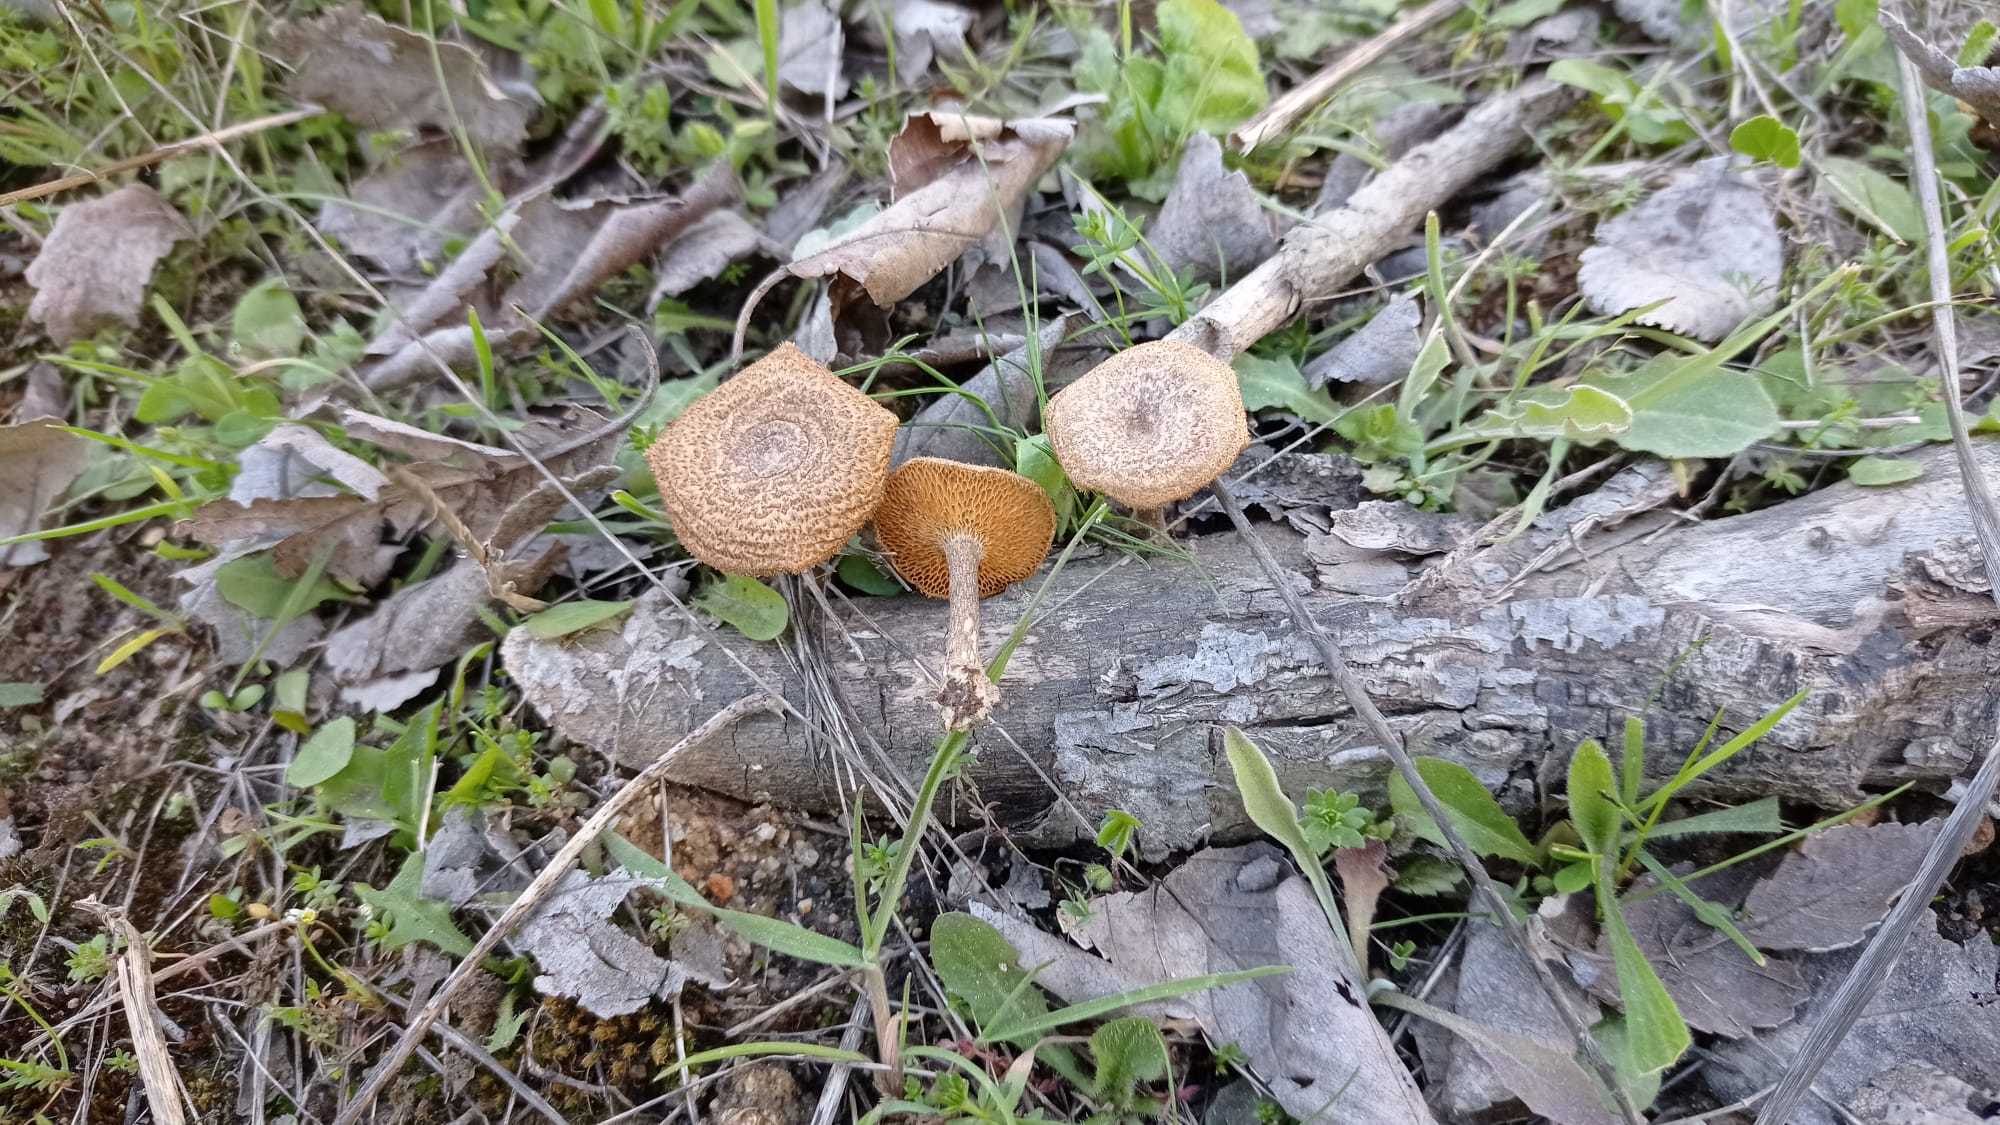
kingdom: Fungi
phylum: Basidiomycota
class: Agaricomycetes
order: Polyporales
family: Polyporaceae
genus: Lentinus
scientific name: Lentinus arcularius
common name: Spring polypore
